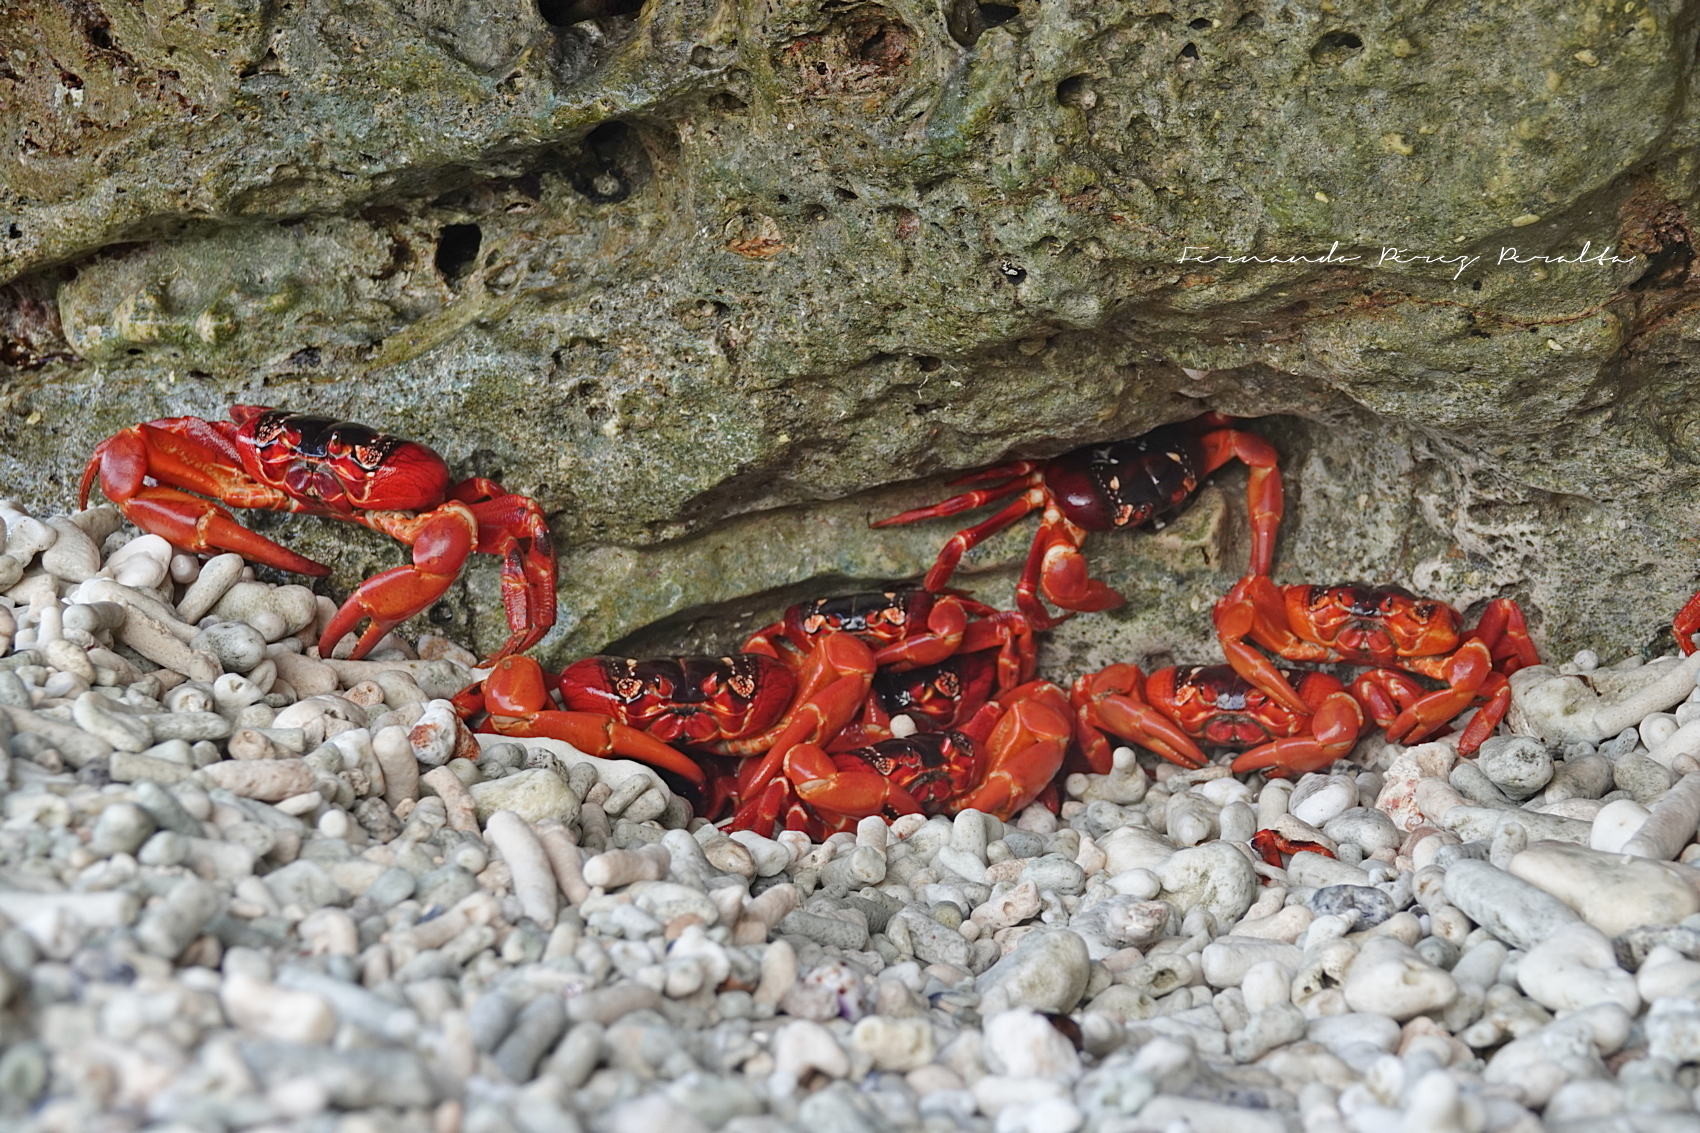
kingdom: Animalia
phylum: Arthropoda
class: Malacostraca
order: Decapoda
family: Gecarcinidae
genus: Gecarcoidea
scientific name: Gecarcoidea natalis
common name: Christmas island red crab
